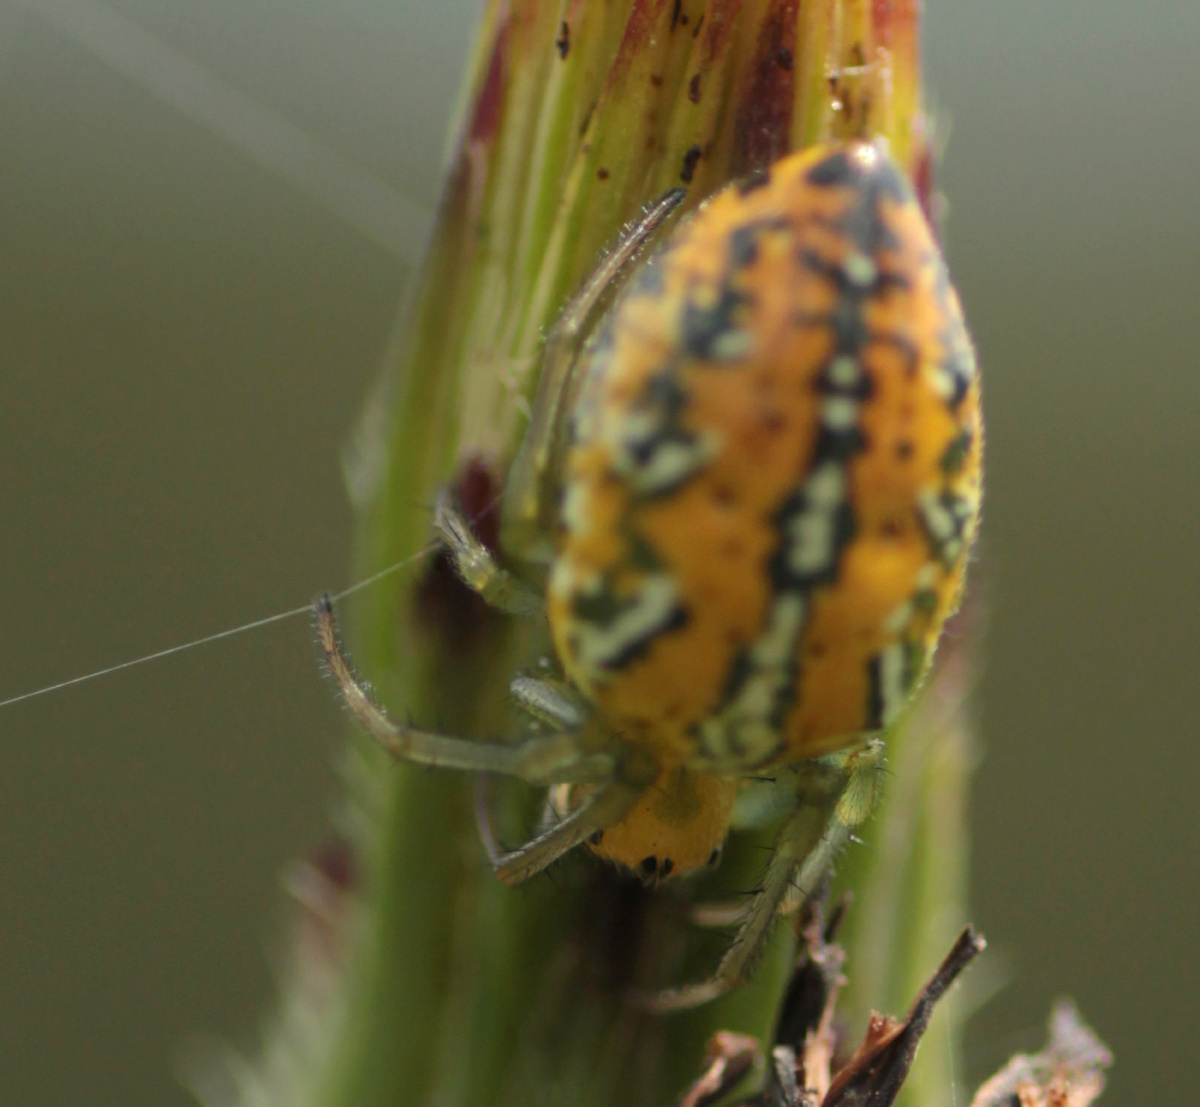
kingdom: Animalia
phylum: Arthropoda
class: Arachnida
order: Araneae
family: Araneidae
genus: Alpaida
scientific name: Alpaida variabilis
